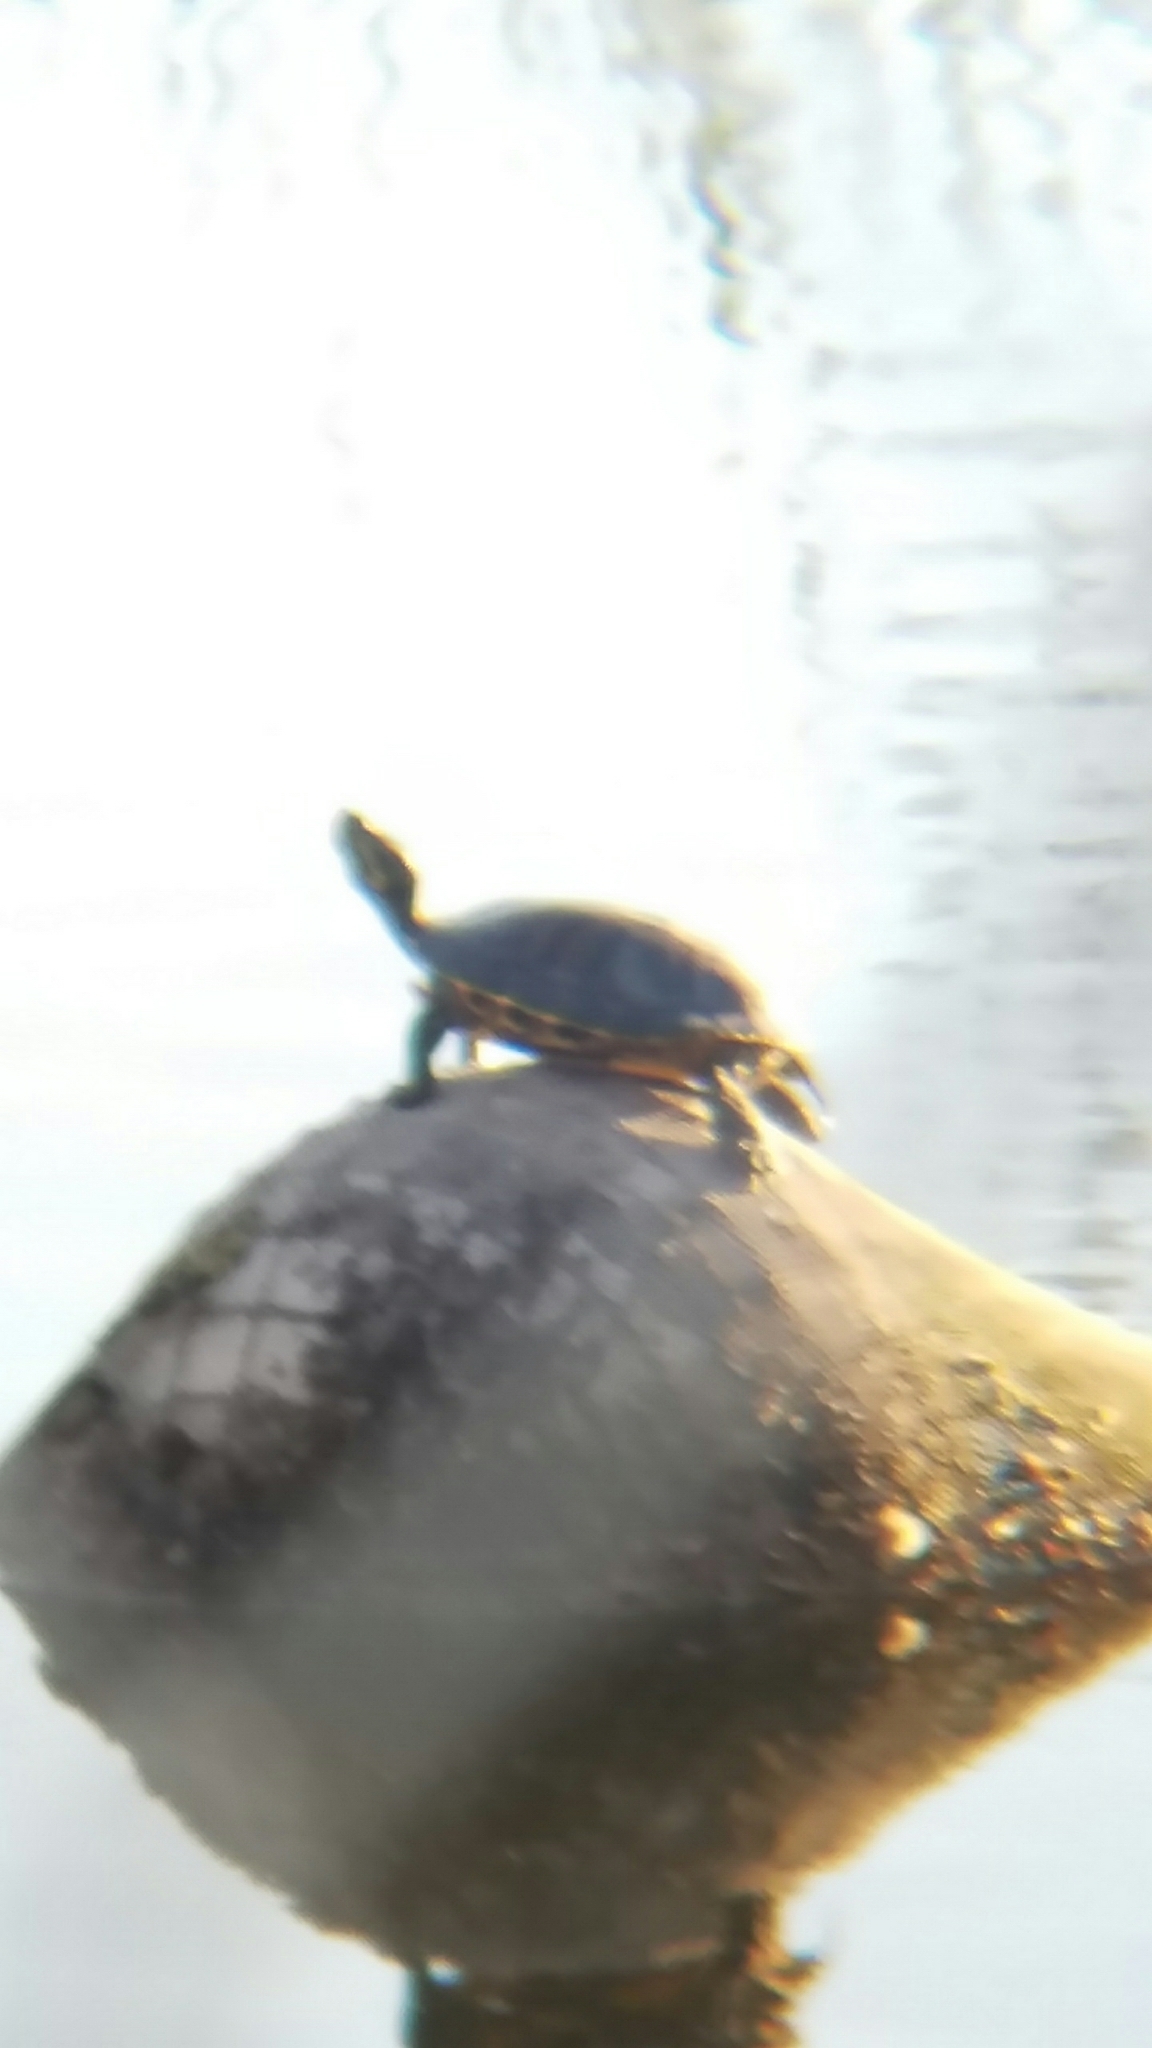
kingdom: Animalia
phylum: Chordata
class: Testudines
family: Emydidae
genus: Trachemys
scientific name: Trachemys scripta
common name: Slider
